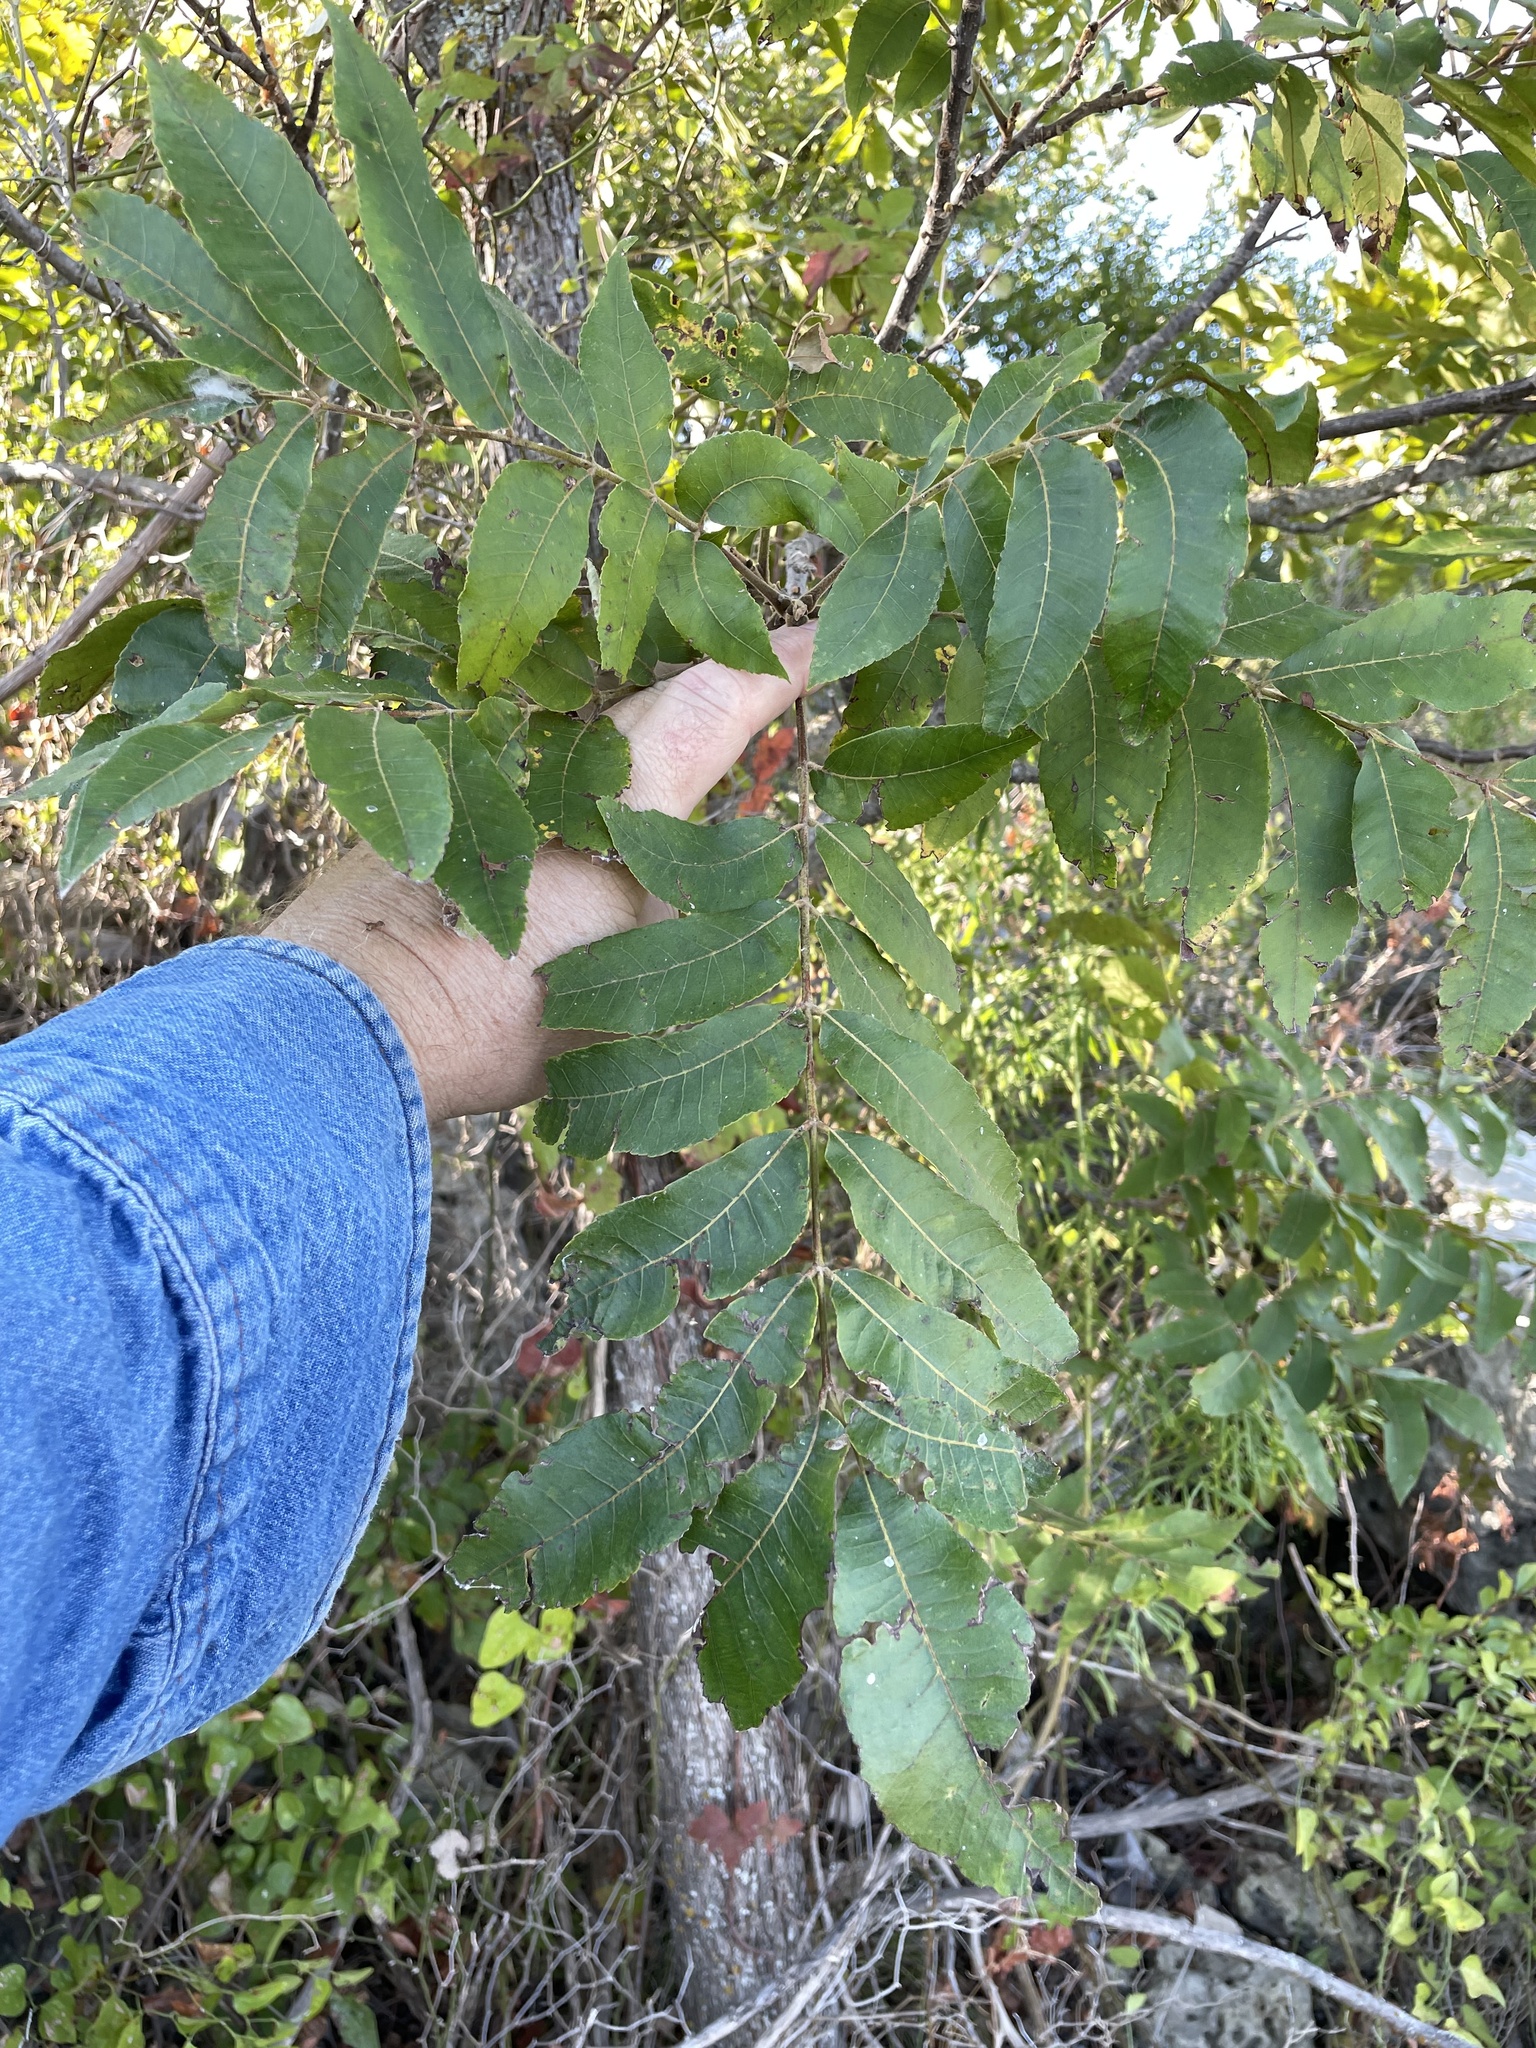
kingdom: Plantae
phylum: Tracheophyta
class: Magnoliopsida
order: Fagales
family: Juglandaceae
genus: Carya
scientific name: Carya illinoinensis
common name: Pecan
